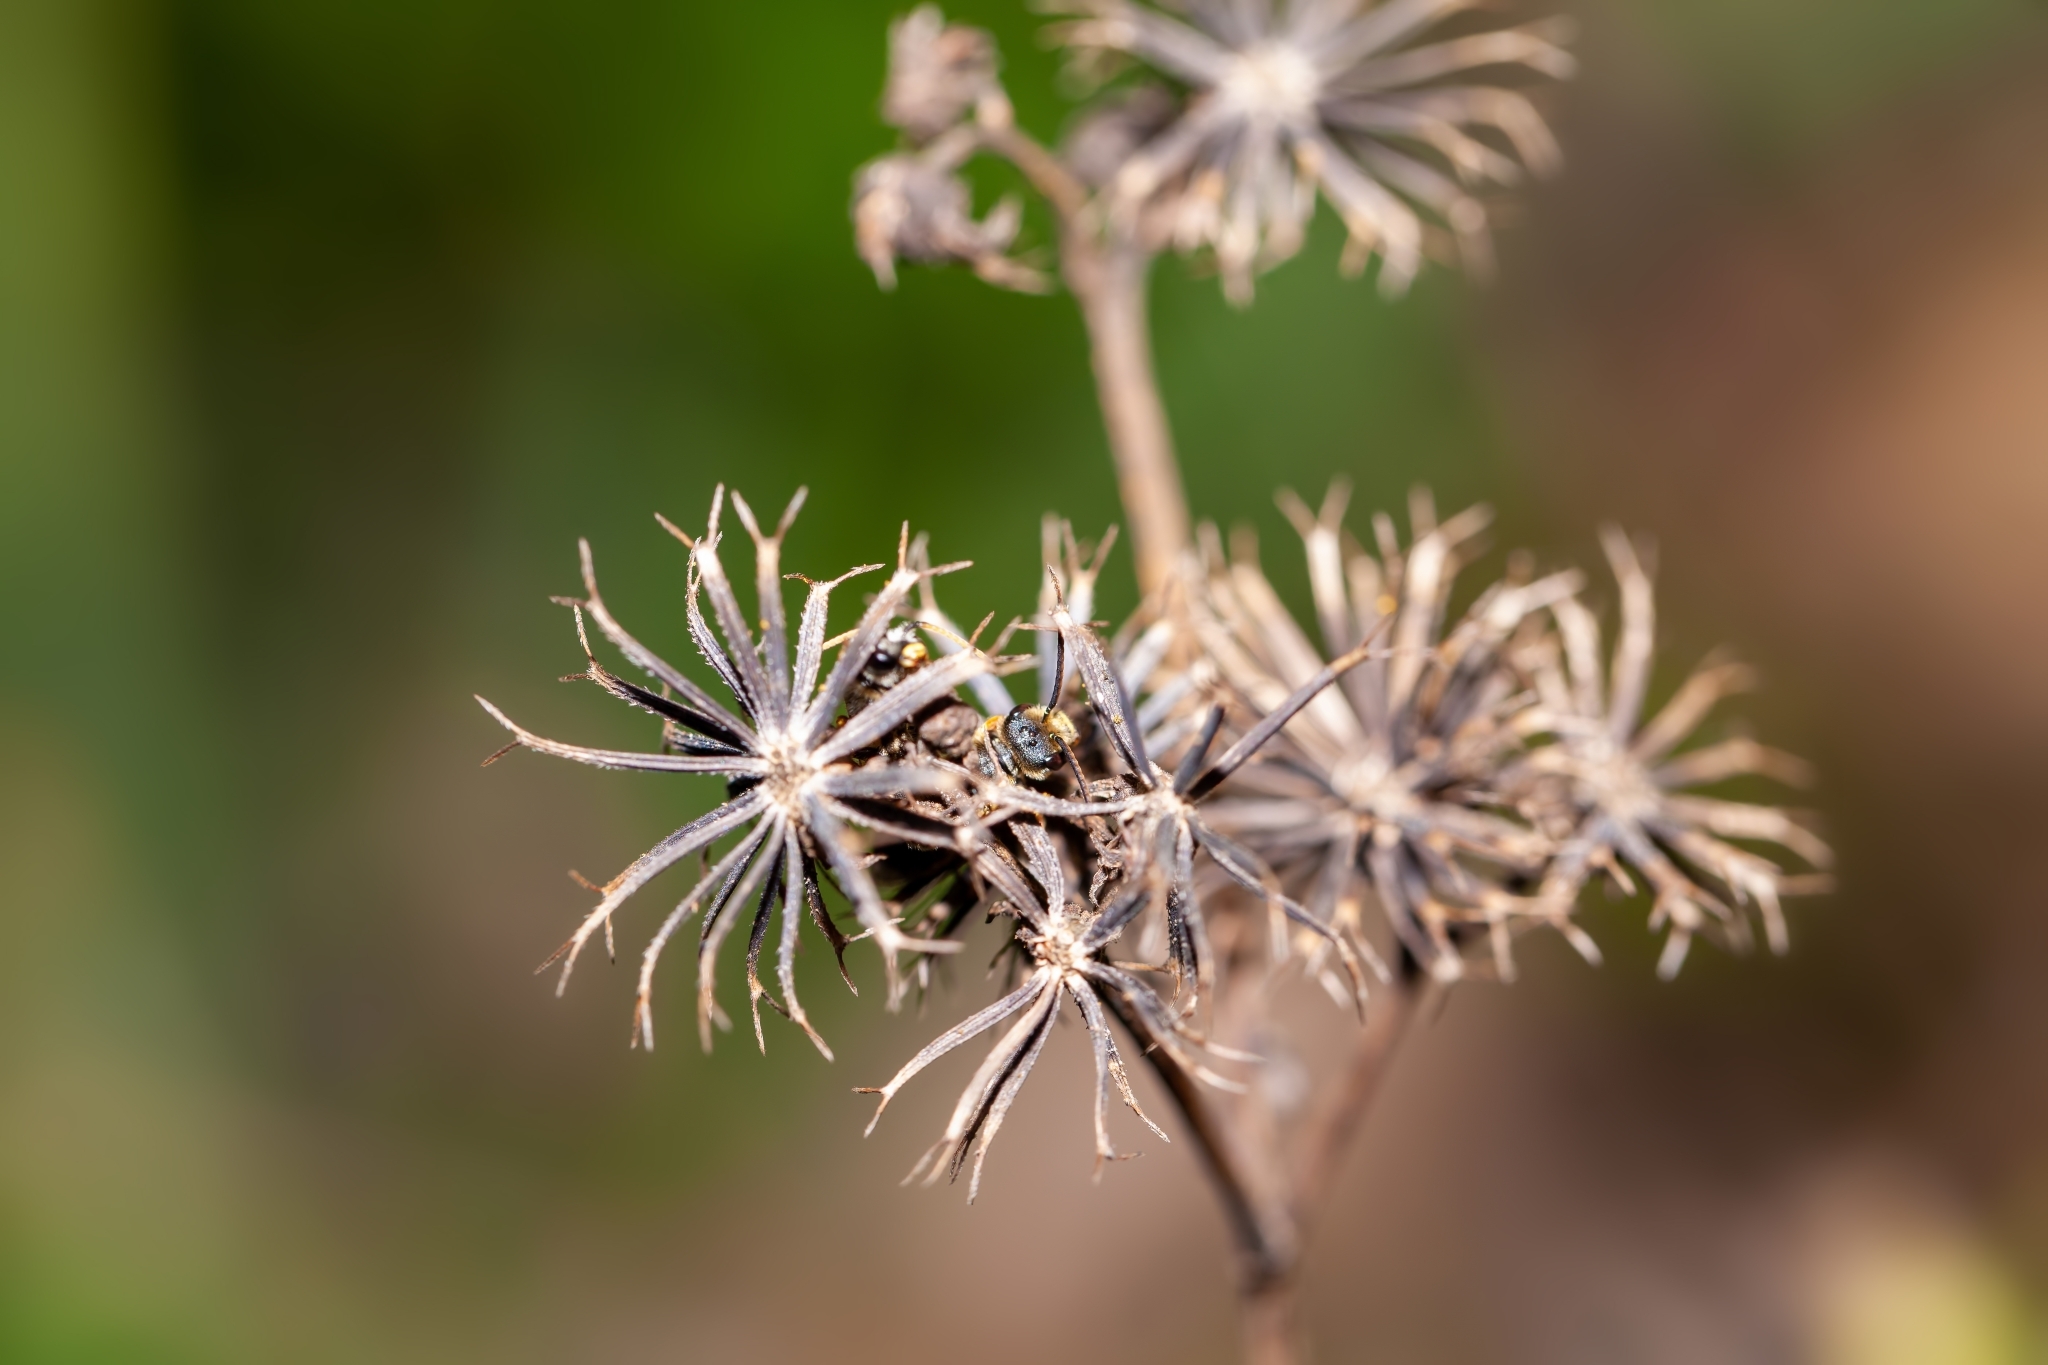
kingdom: Animalia
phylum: Arthropoda
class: Insecta
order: Hymenoptera
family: Halictidae
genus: Halictus
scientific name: Halictus poeyi
